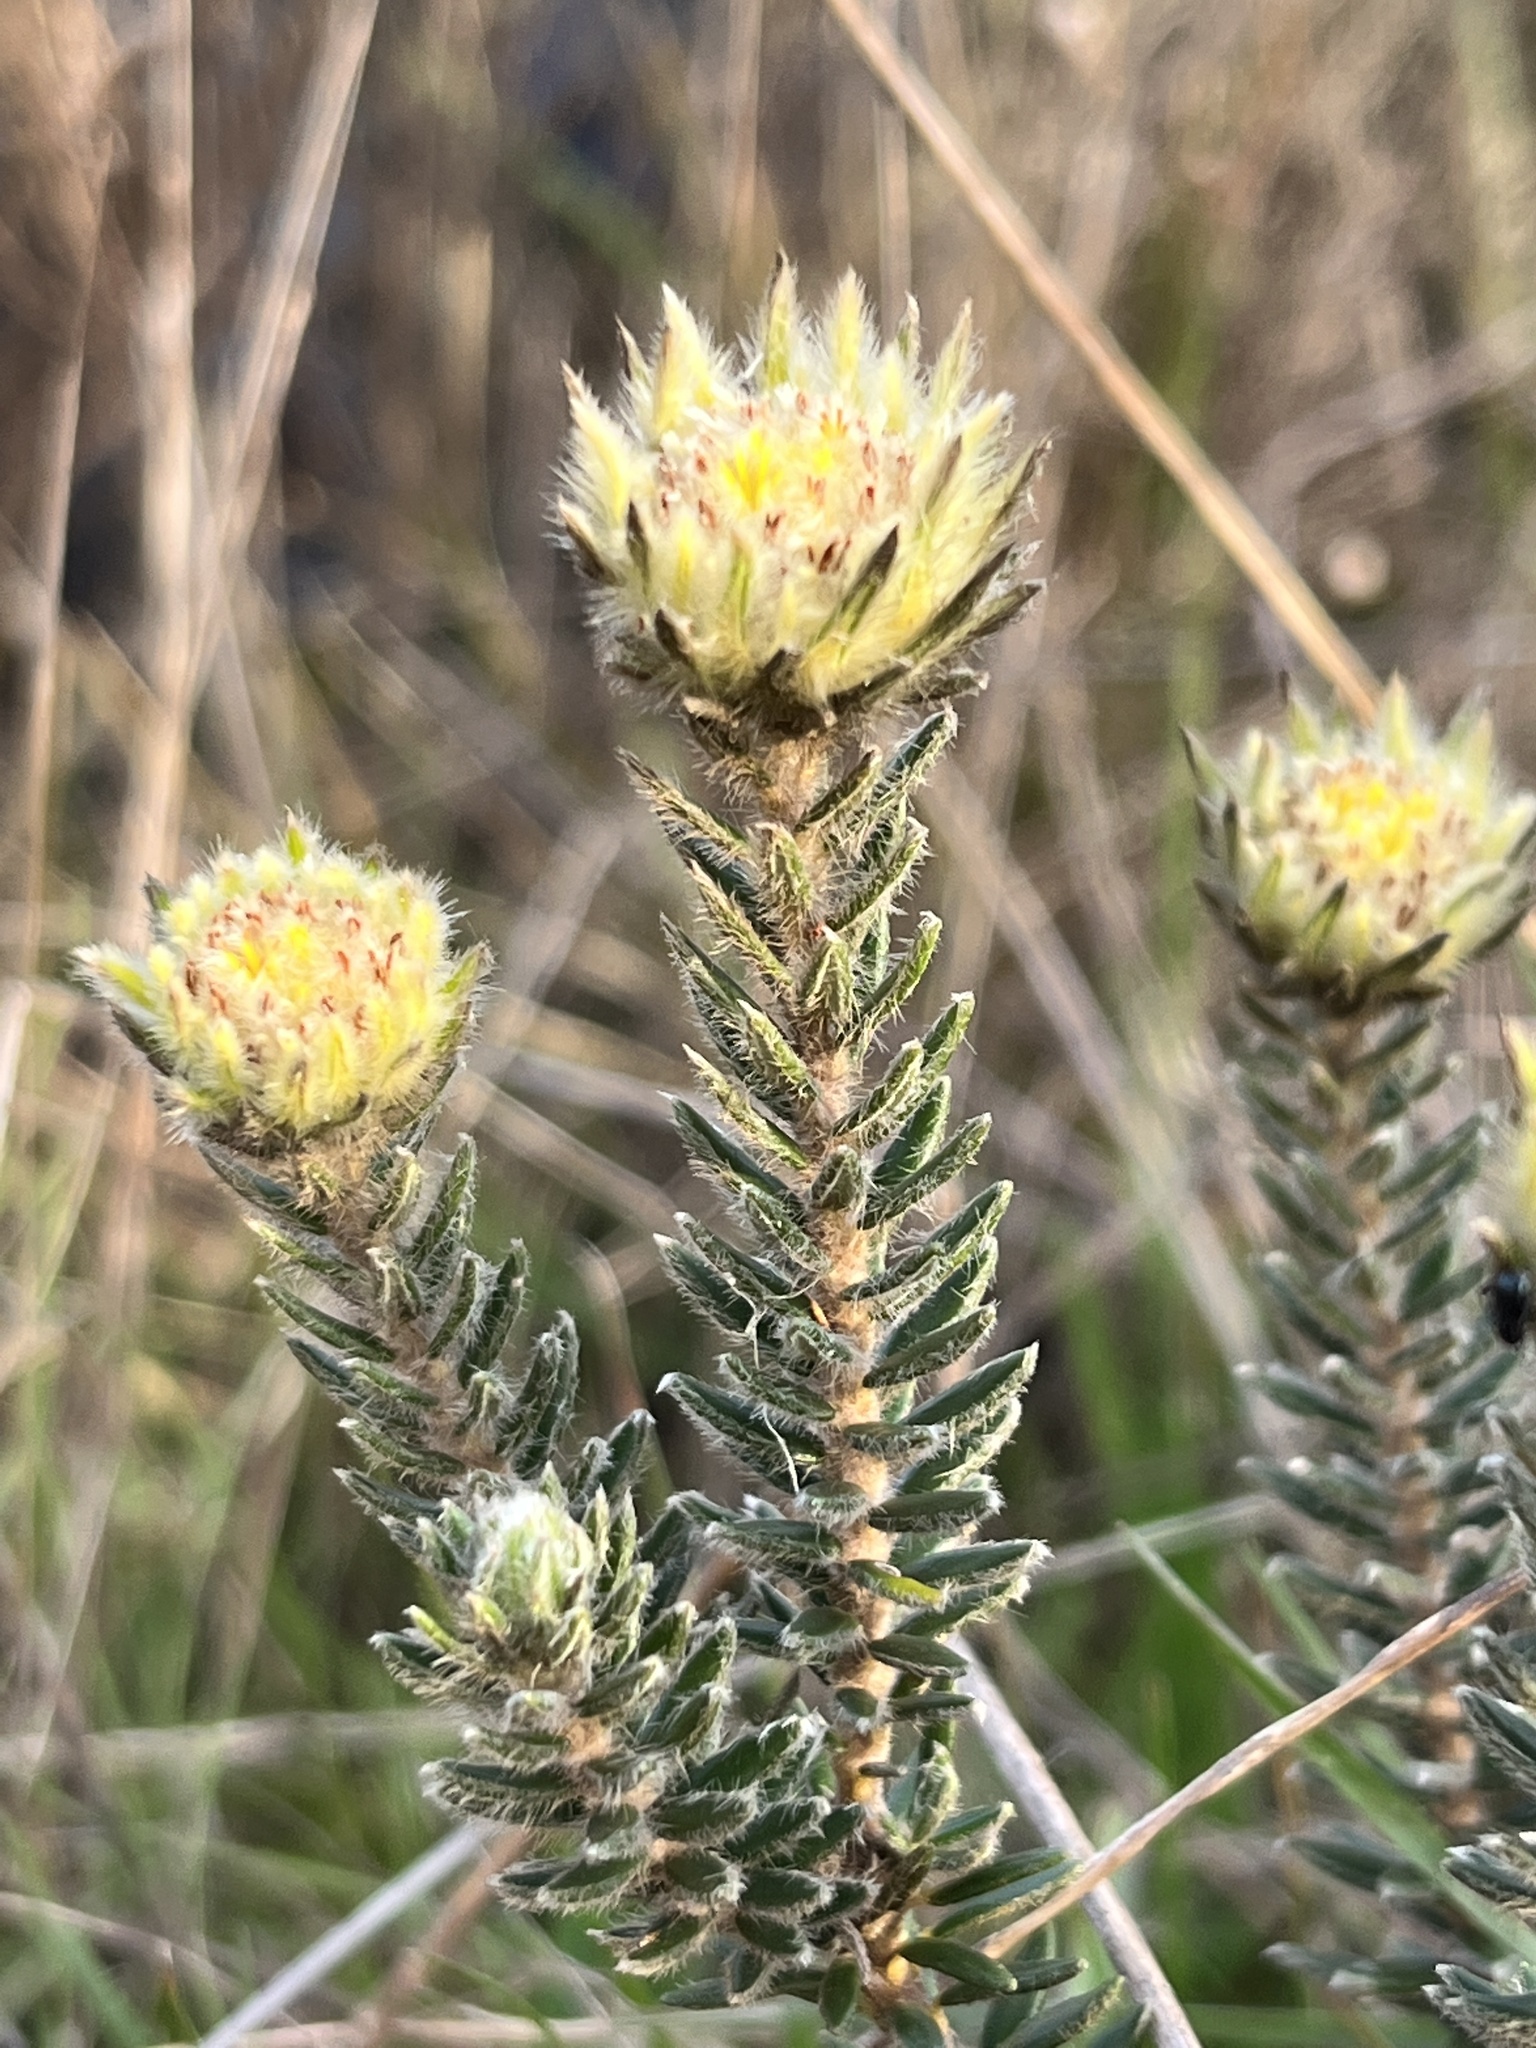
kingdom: Plantae
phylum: Tracheophyta
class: Magnoliopsida
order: Rosales
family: Rhamnaceae
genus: Phylica
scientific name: Phylica lucida
